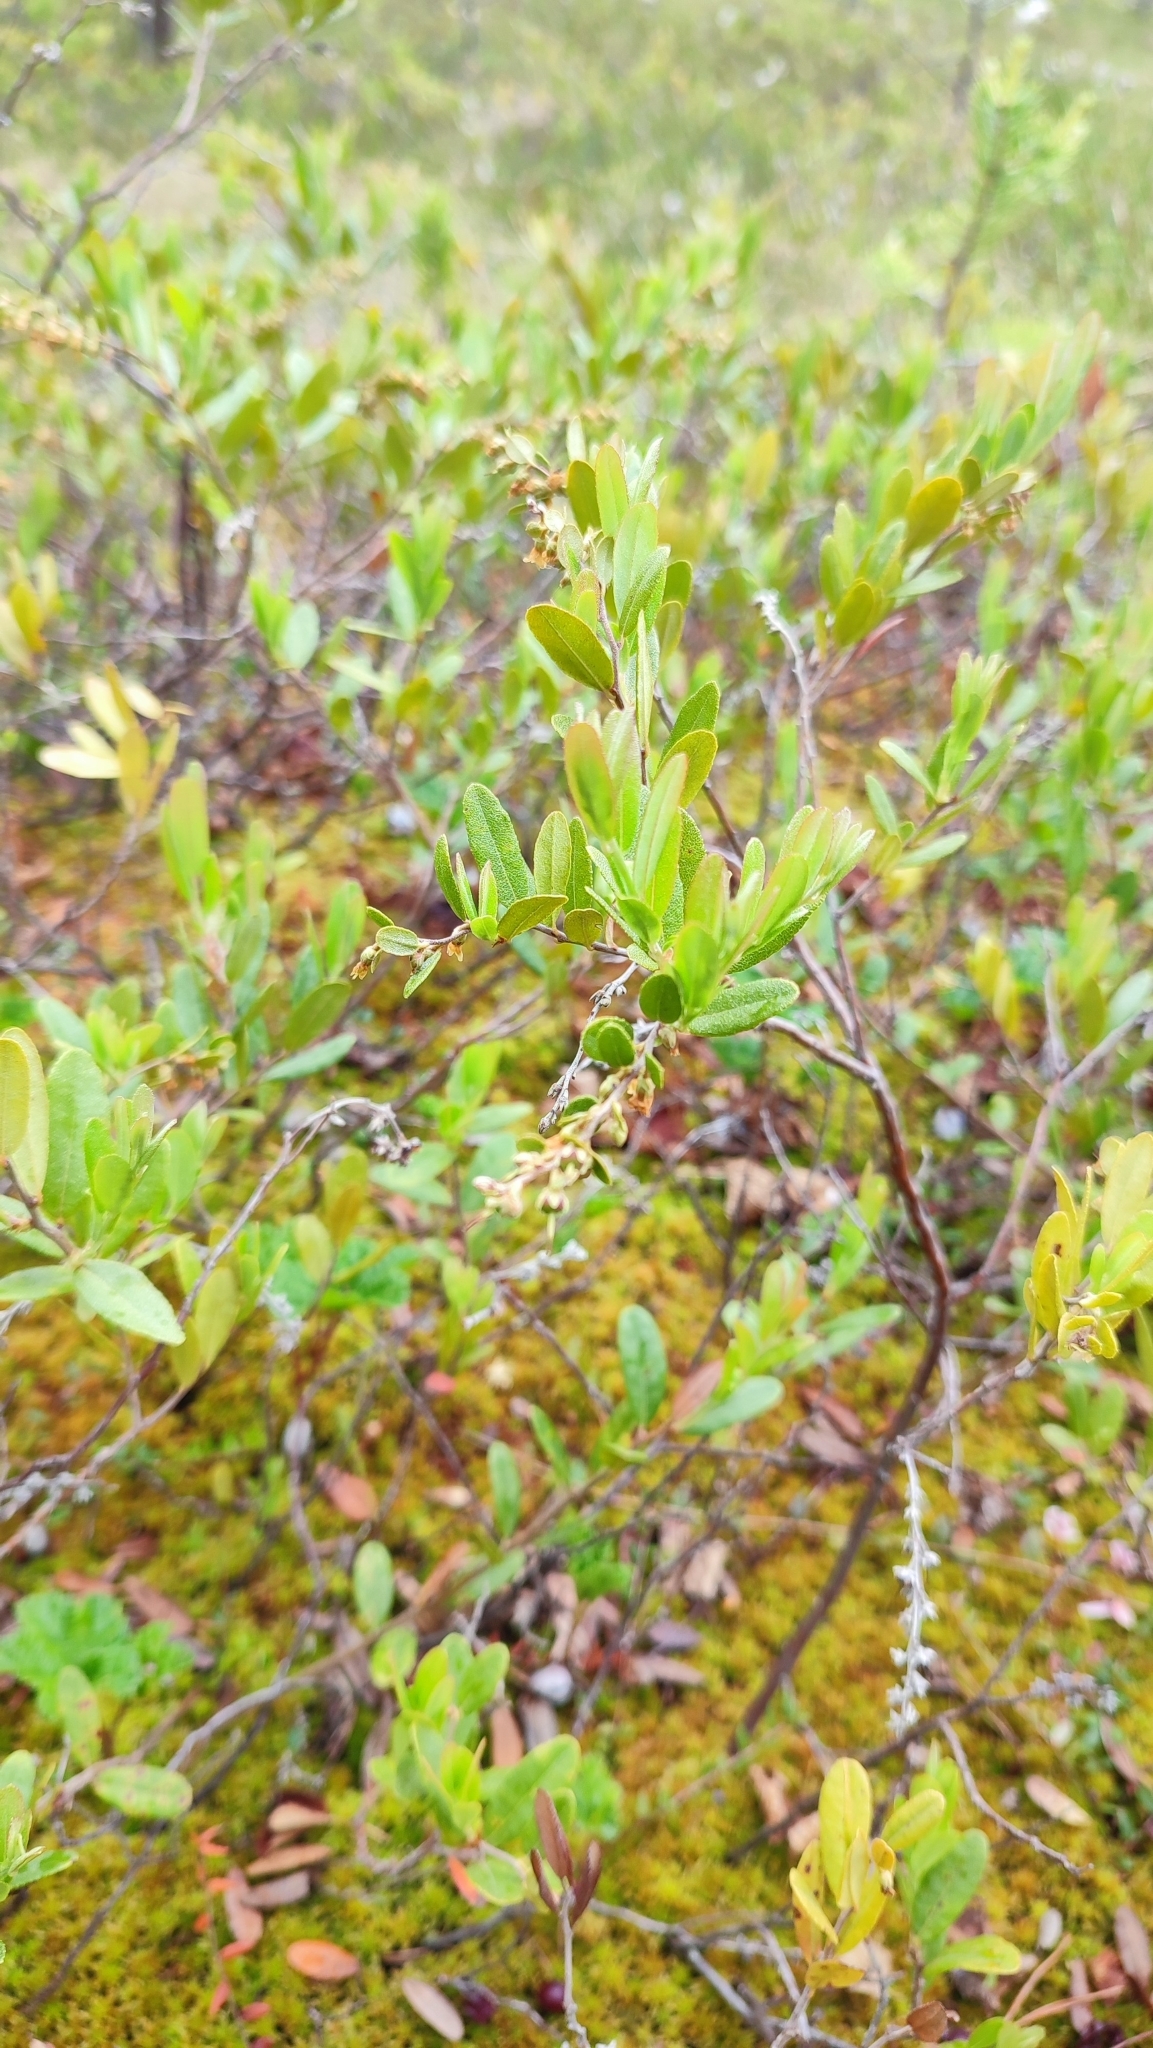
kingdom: Plantae
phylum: Tracheophyta
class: Magnoliopsida
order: Ericales
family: Ericaceae
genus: Chamaedaphne
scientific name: Chamaedaphne calyculata
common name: Leatherleaf
